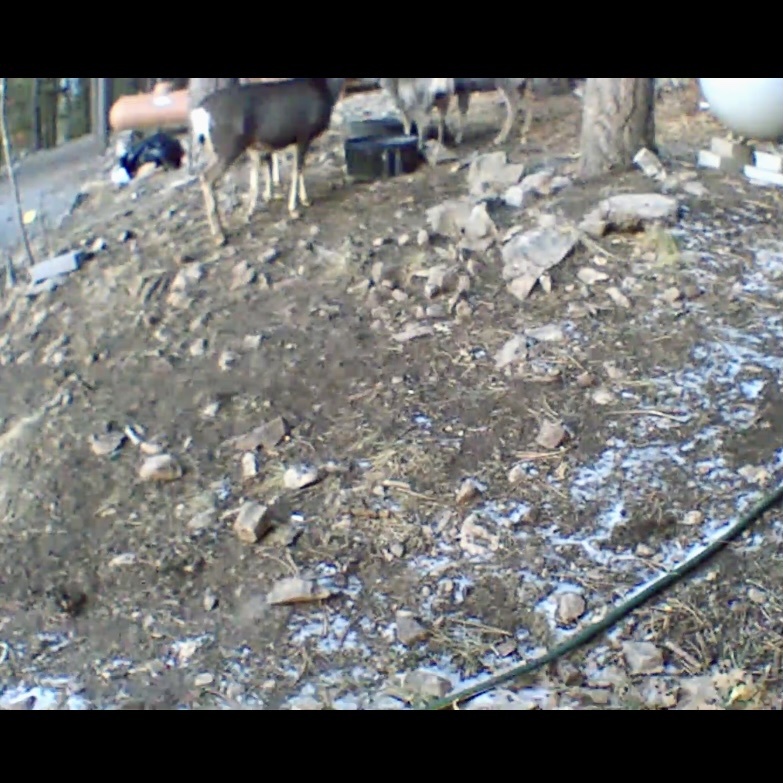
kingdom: Animalia
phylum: Chordata
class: Mammalia
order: Artiodactyla
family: Cervidae
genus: Odocoileus
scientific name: Odocoileus hemionus
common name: Mule deer
